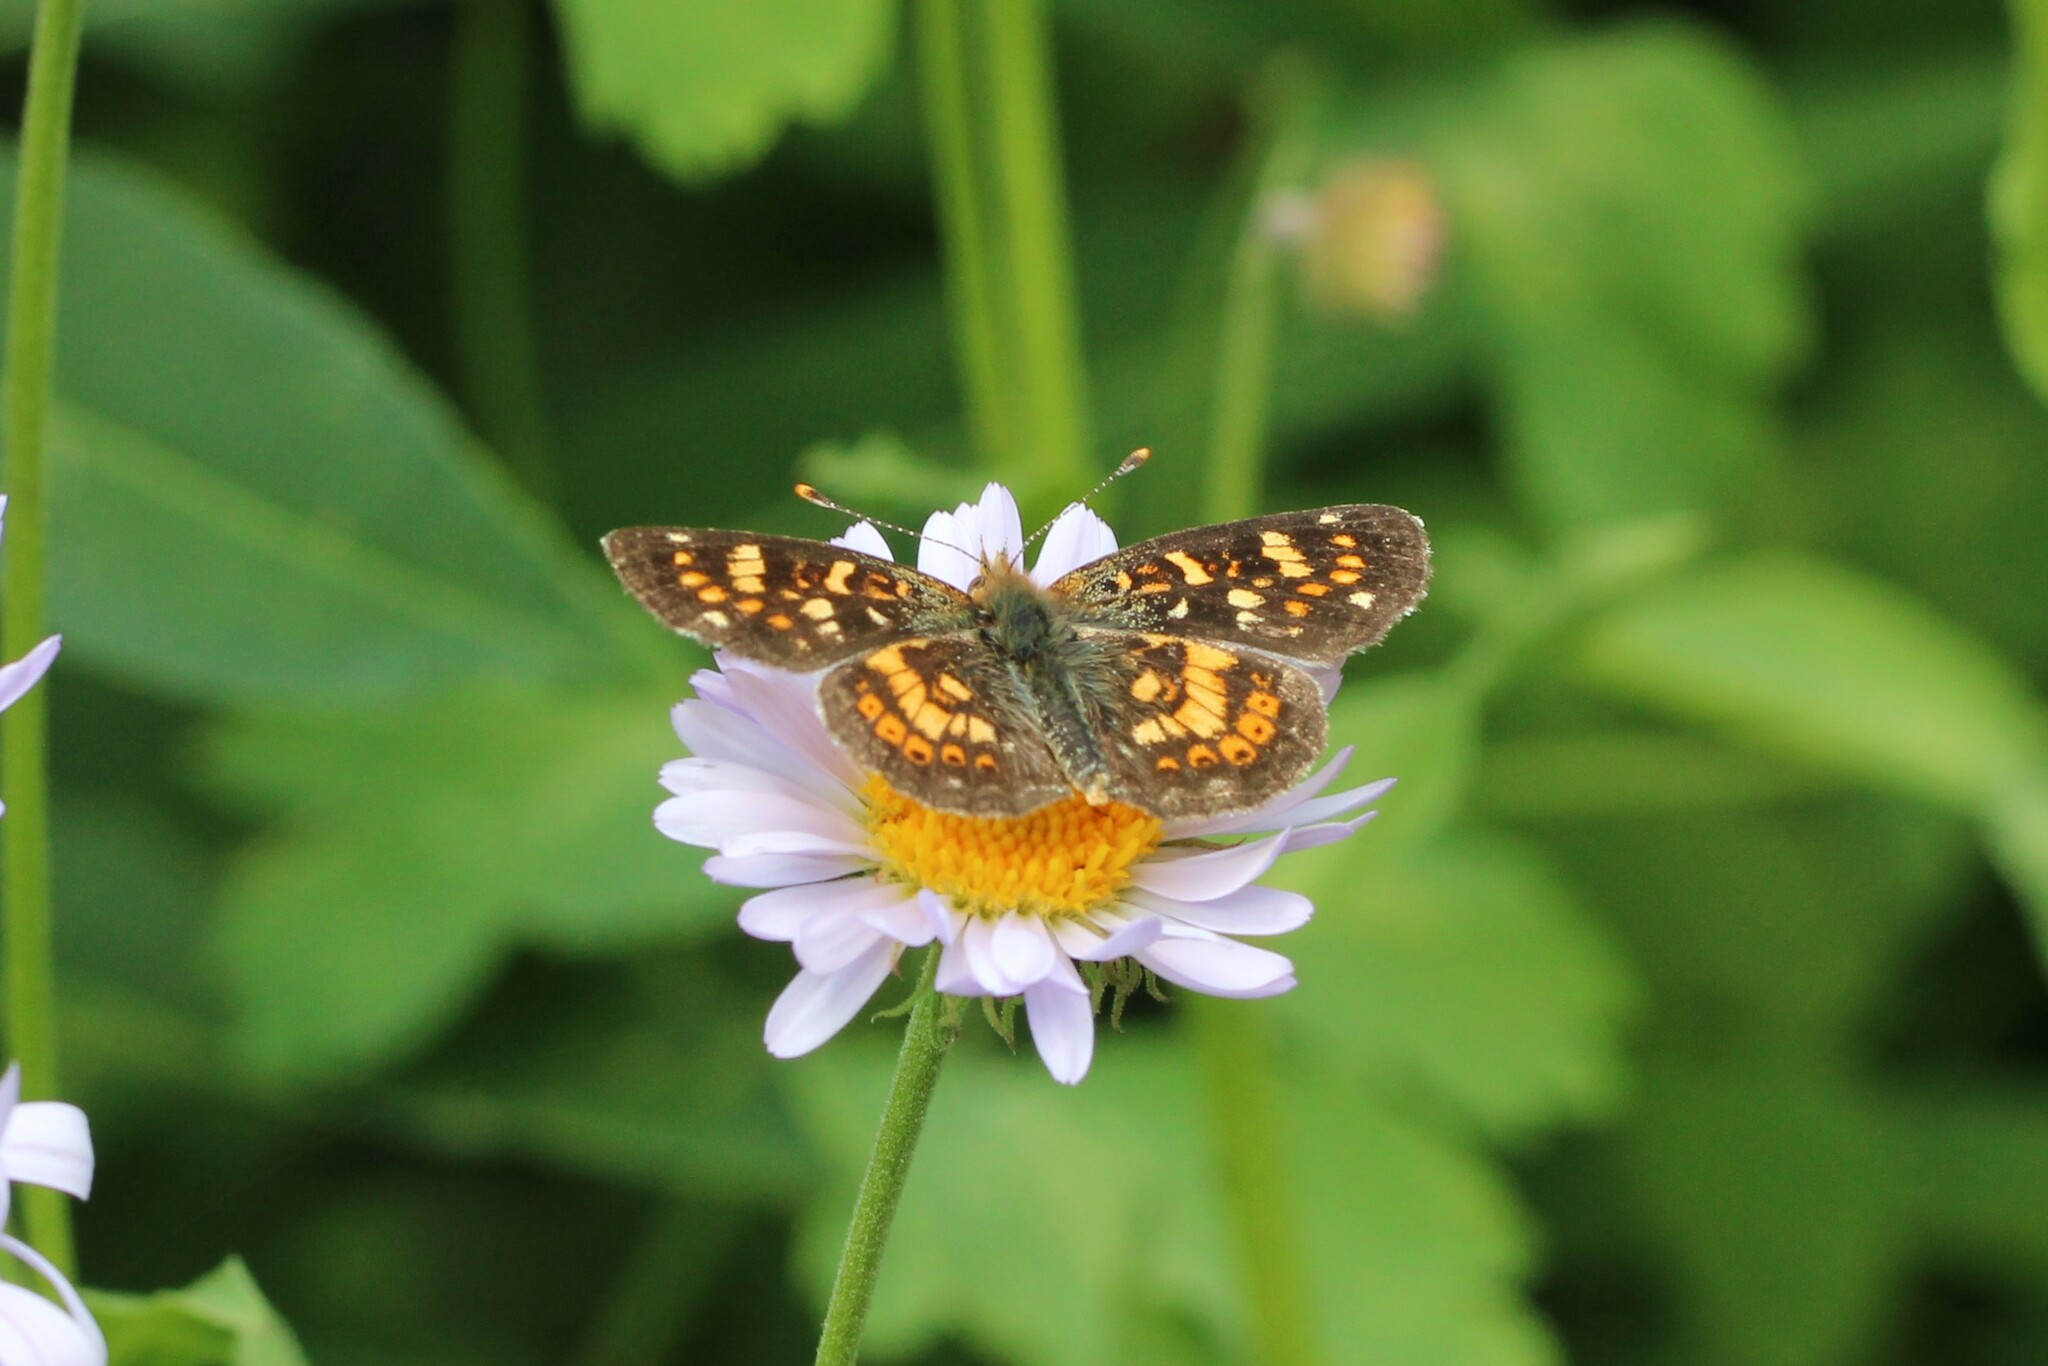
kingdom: Animalia
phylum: Arthropoda
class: Insecta
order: Lepidoptera
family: Nymphalidae
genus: Phyciodes
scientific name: Phyciodes tharos
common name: Pearl crescent
